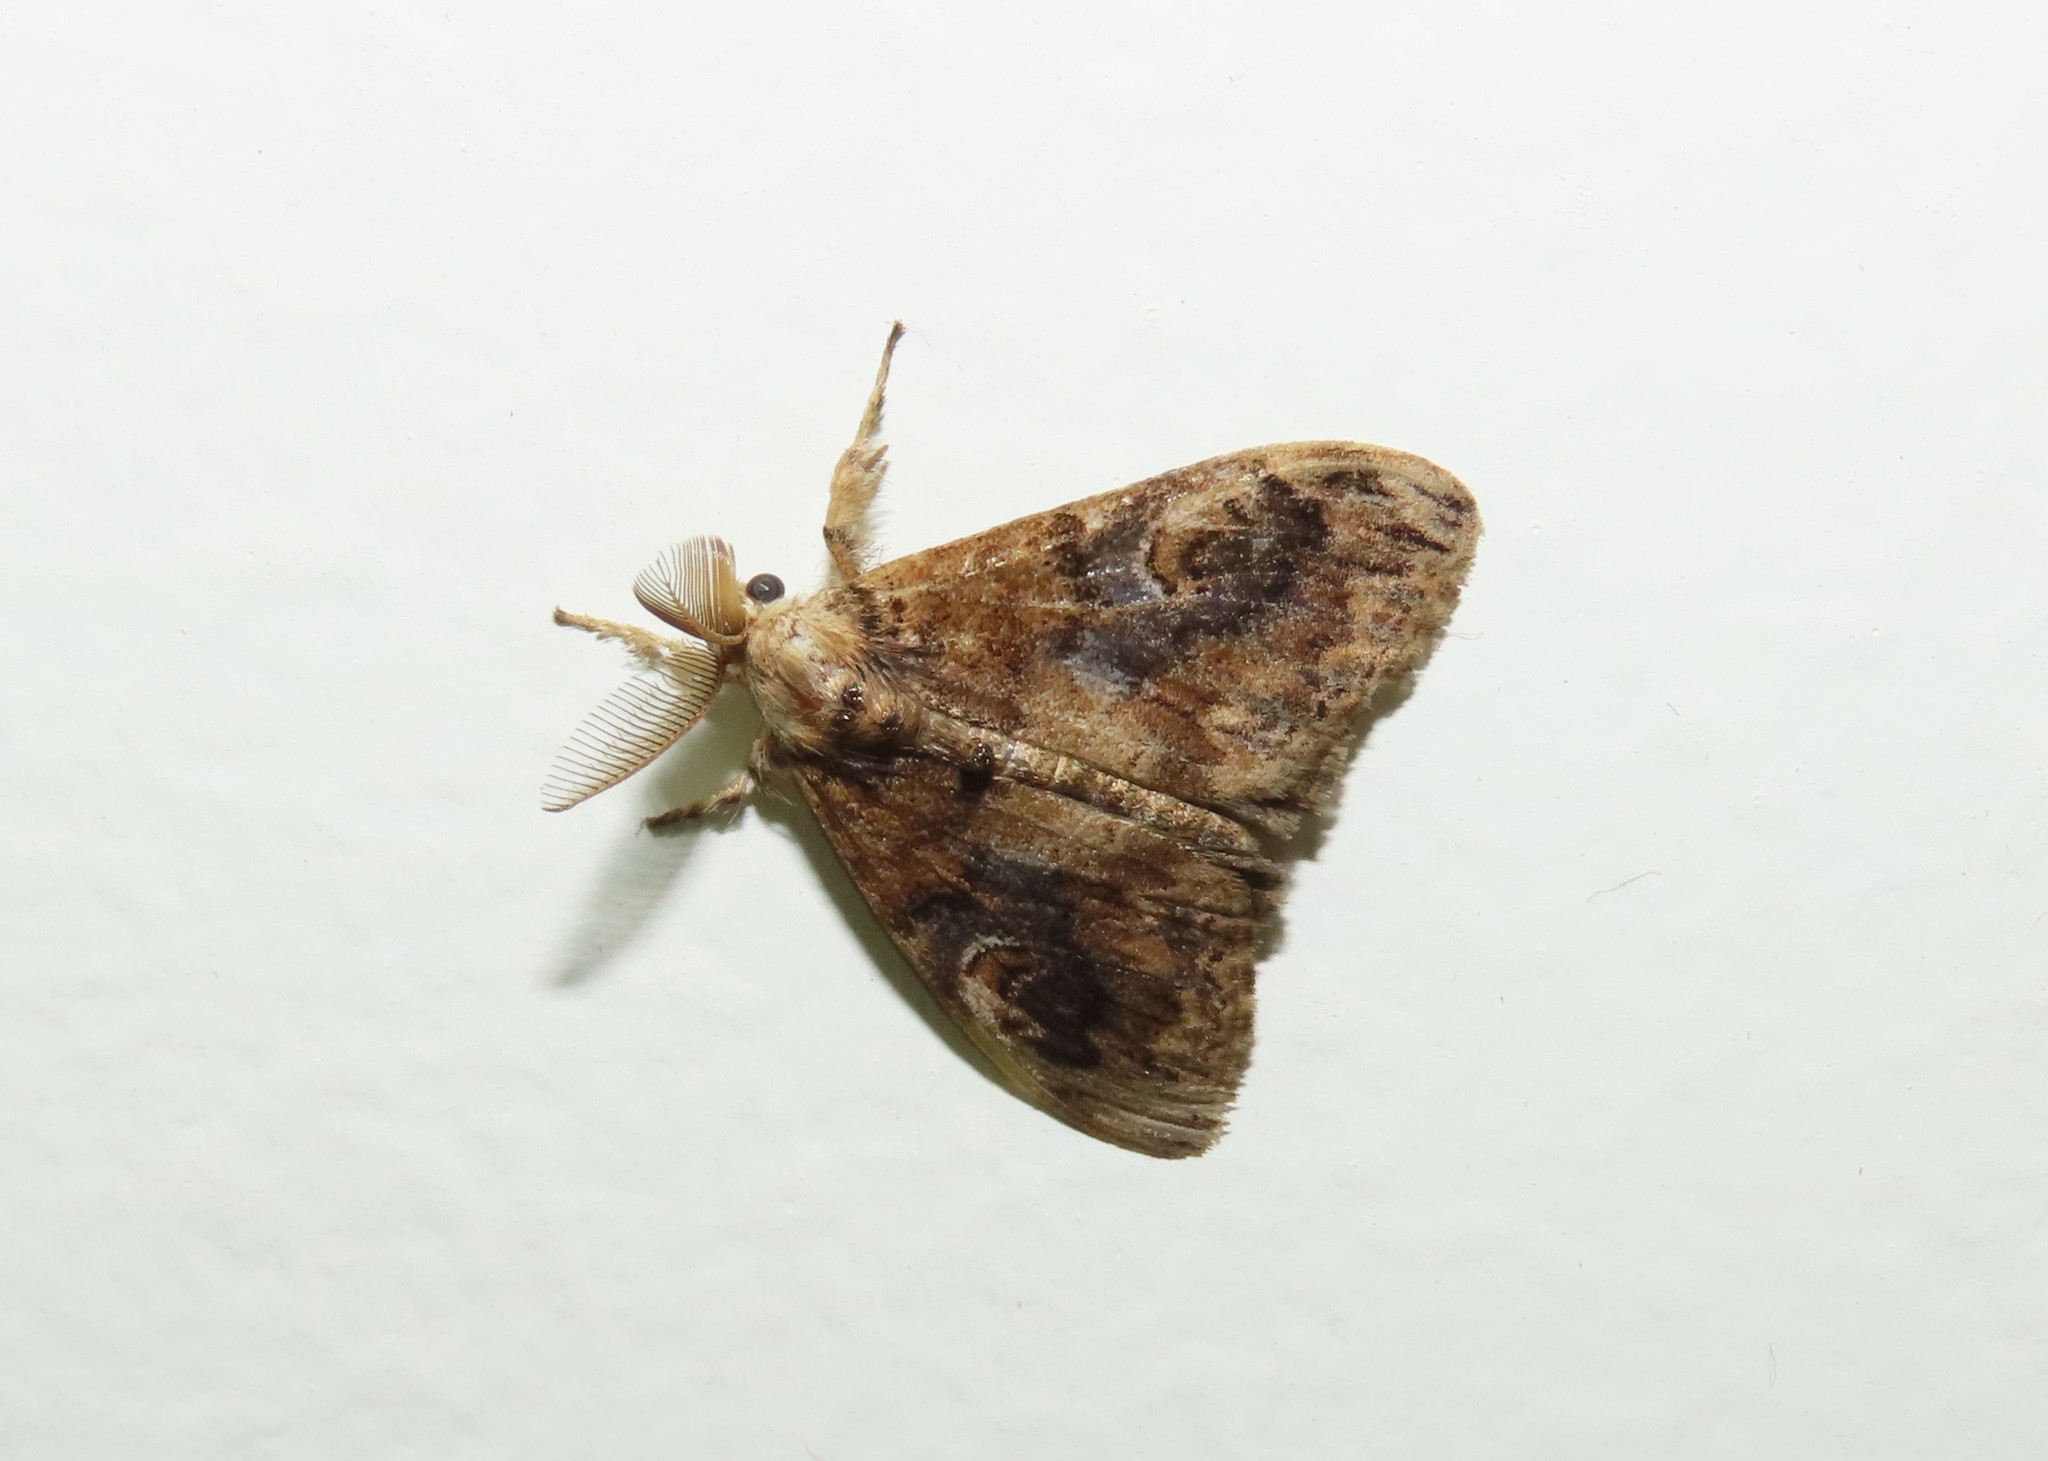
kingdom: Animalia
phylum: Arthropoda
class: Insecta
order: Lepidoptera
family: Erebidae
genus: Orgyia
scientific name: Orgyia postica
